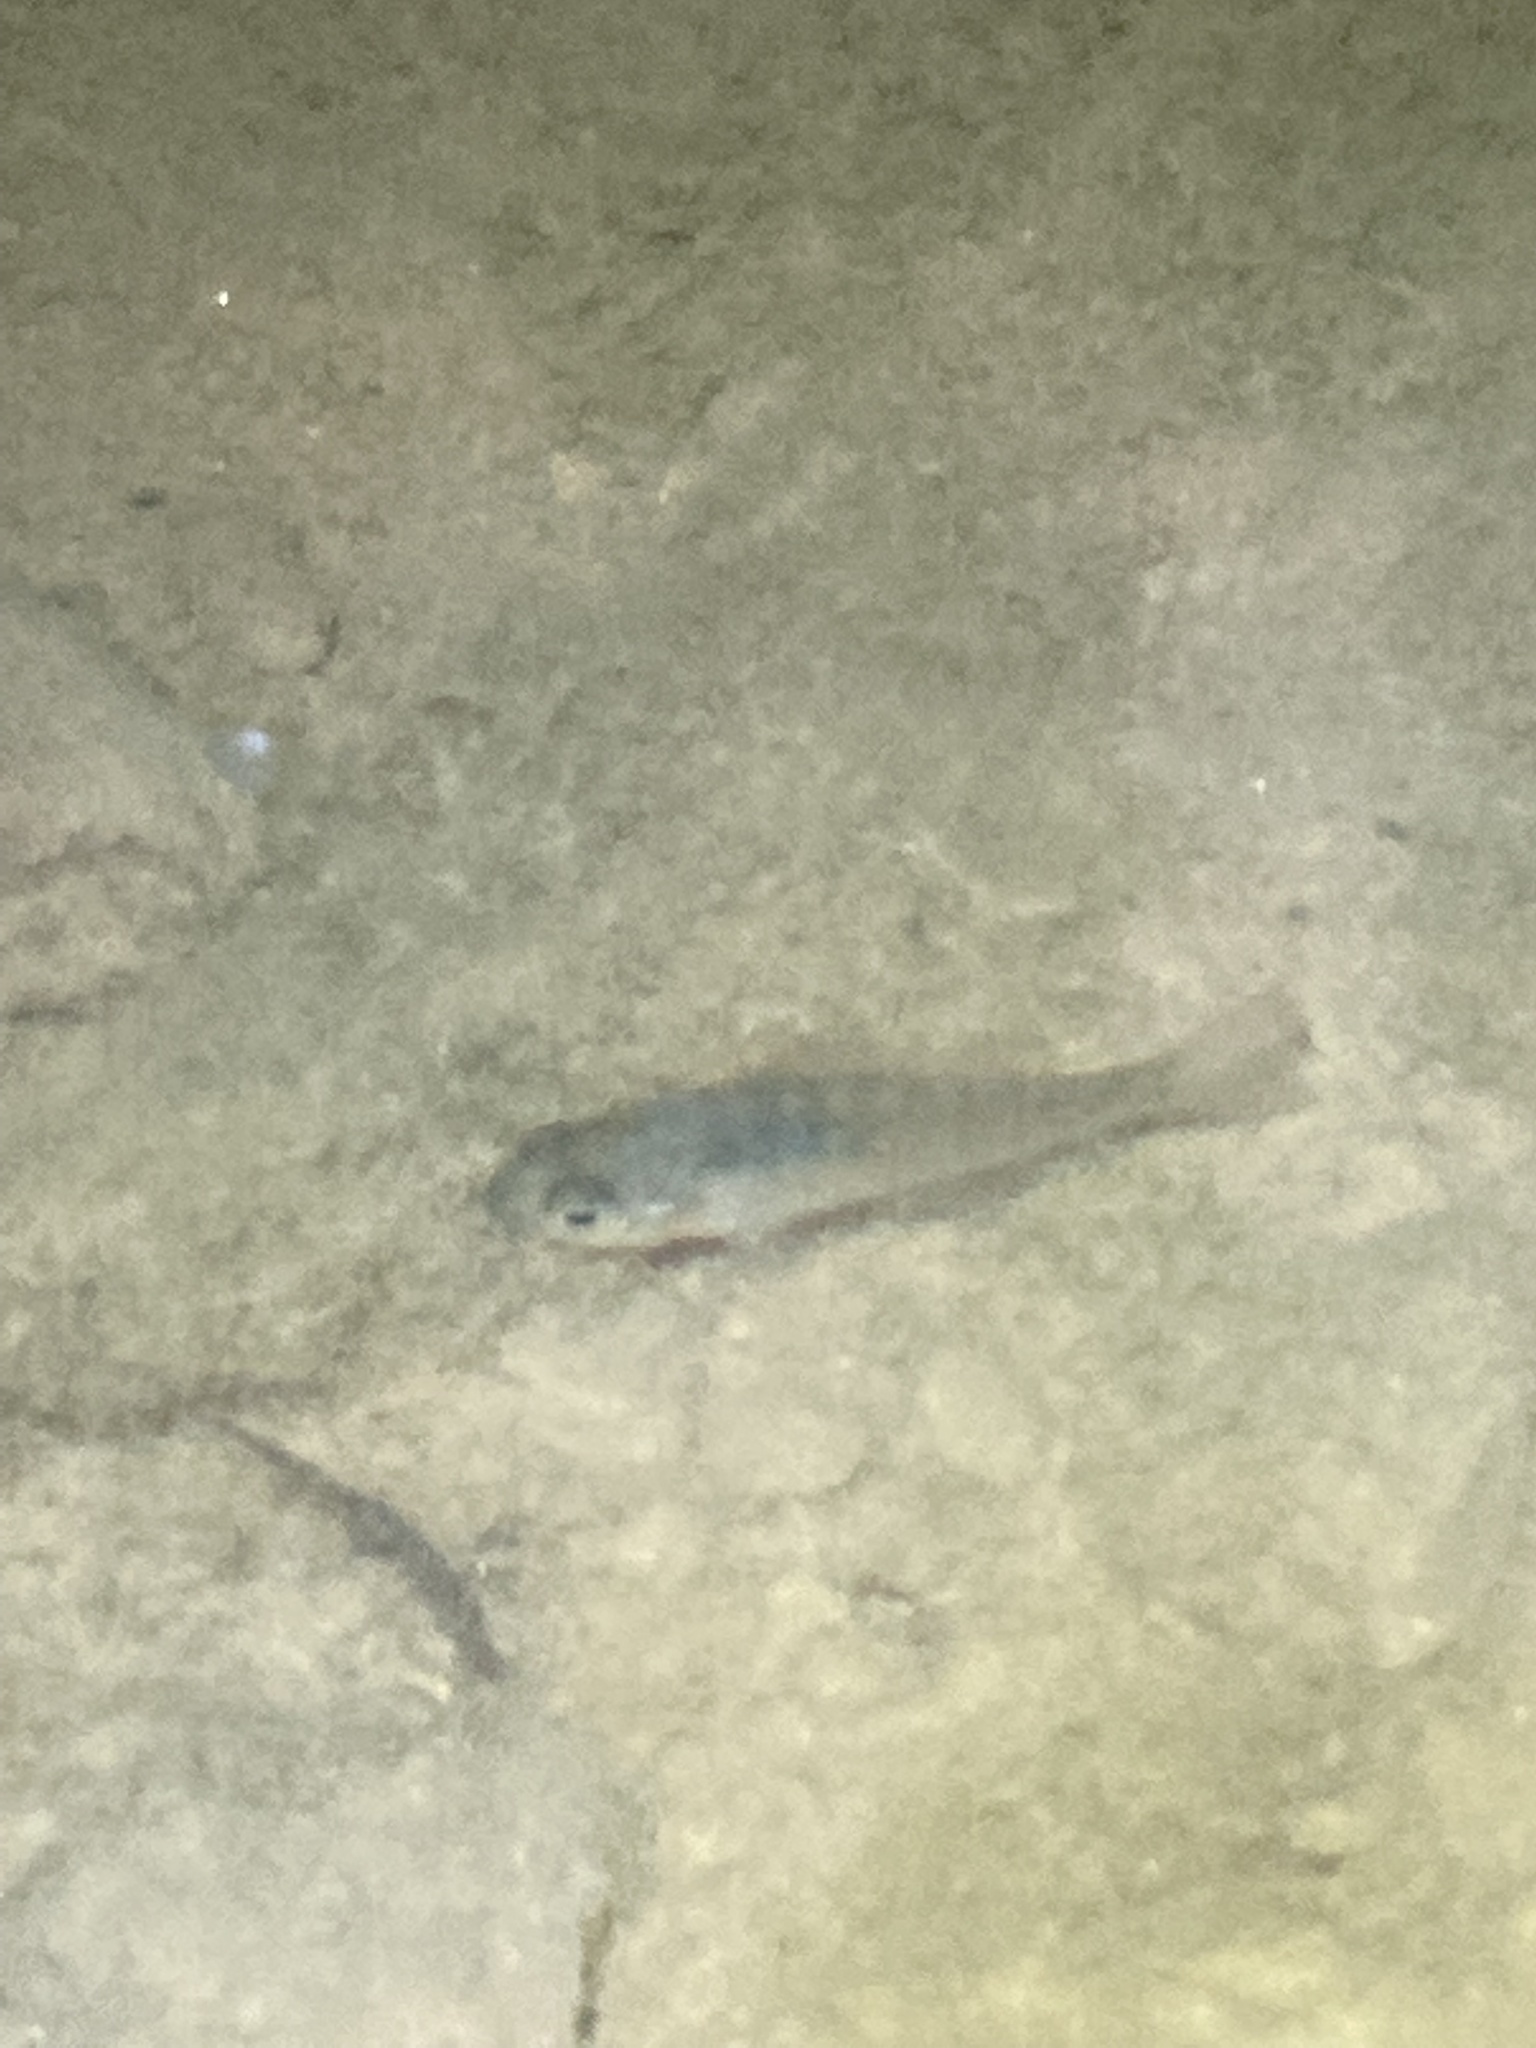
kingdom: Animalia
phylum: Chordata
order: Perciformes
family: Centrarchidae
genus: Lepomis
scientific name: Lepomis
